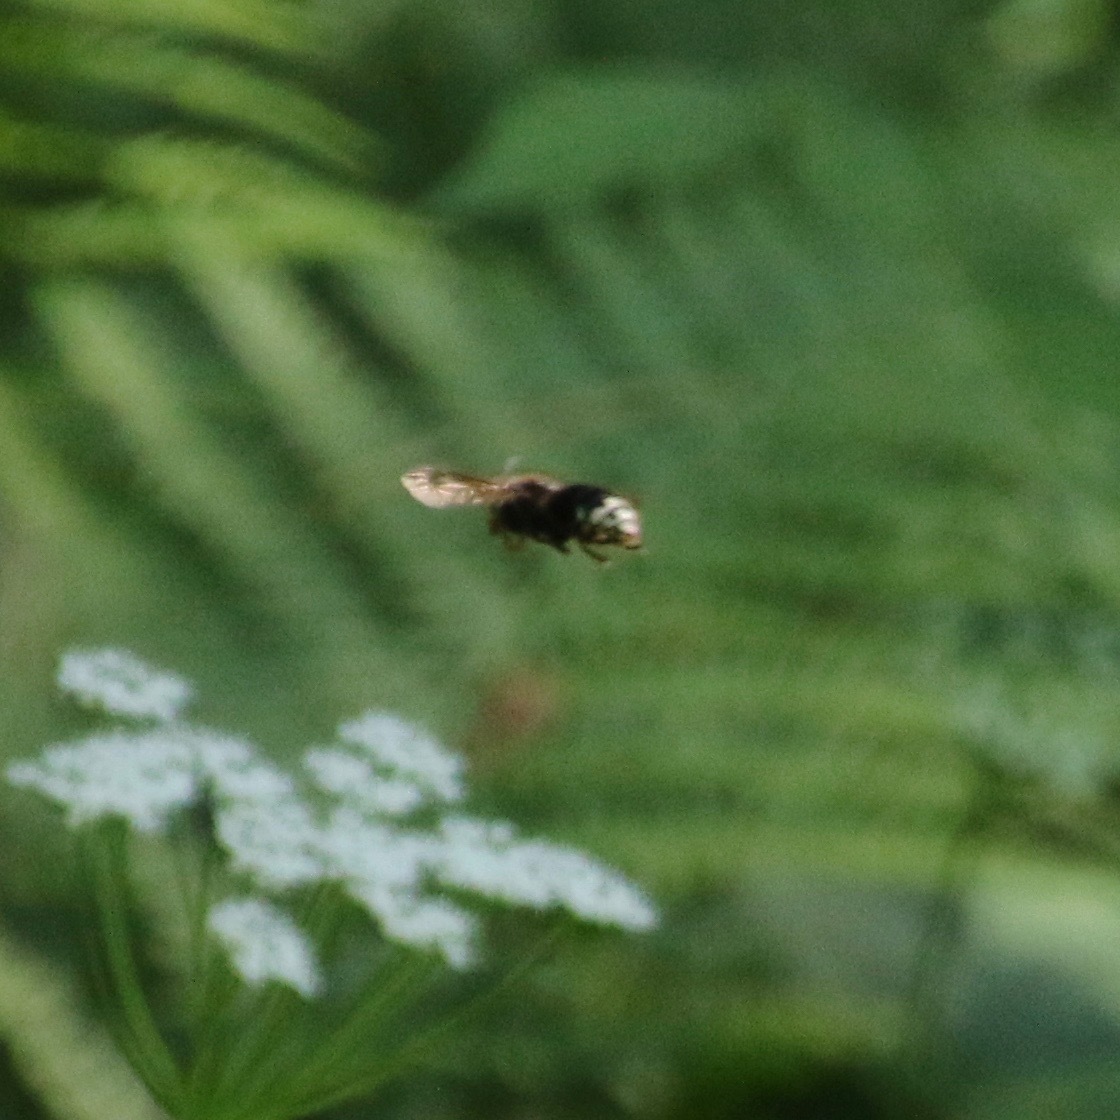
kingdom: Animalia
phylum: Arthropoda
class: Insecta
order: Hymenoptera
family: Vespidae
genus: Dolichovespula
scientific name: Dolichovespula maculata
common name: Bald-faced hornet
